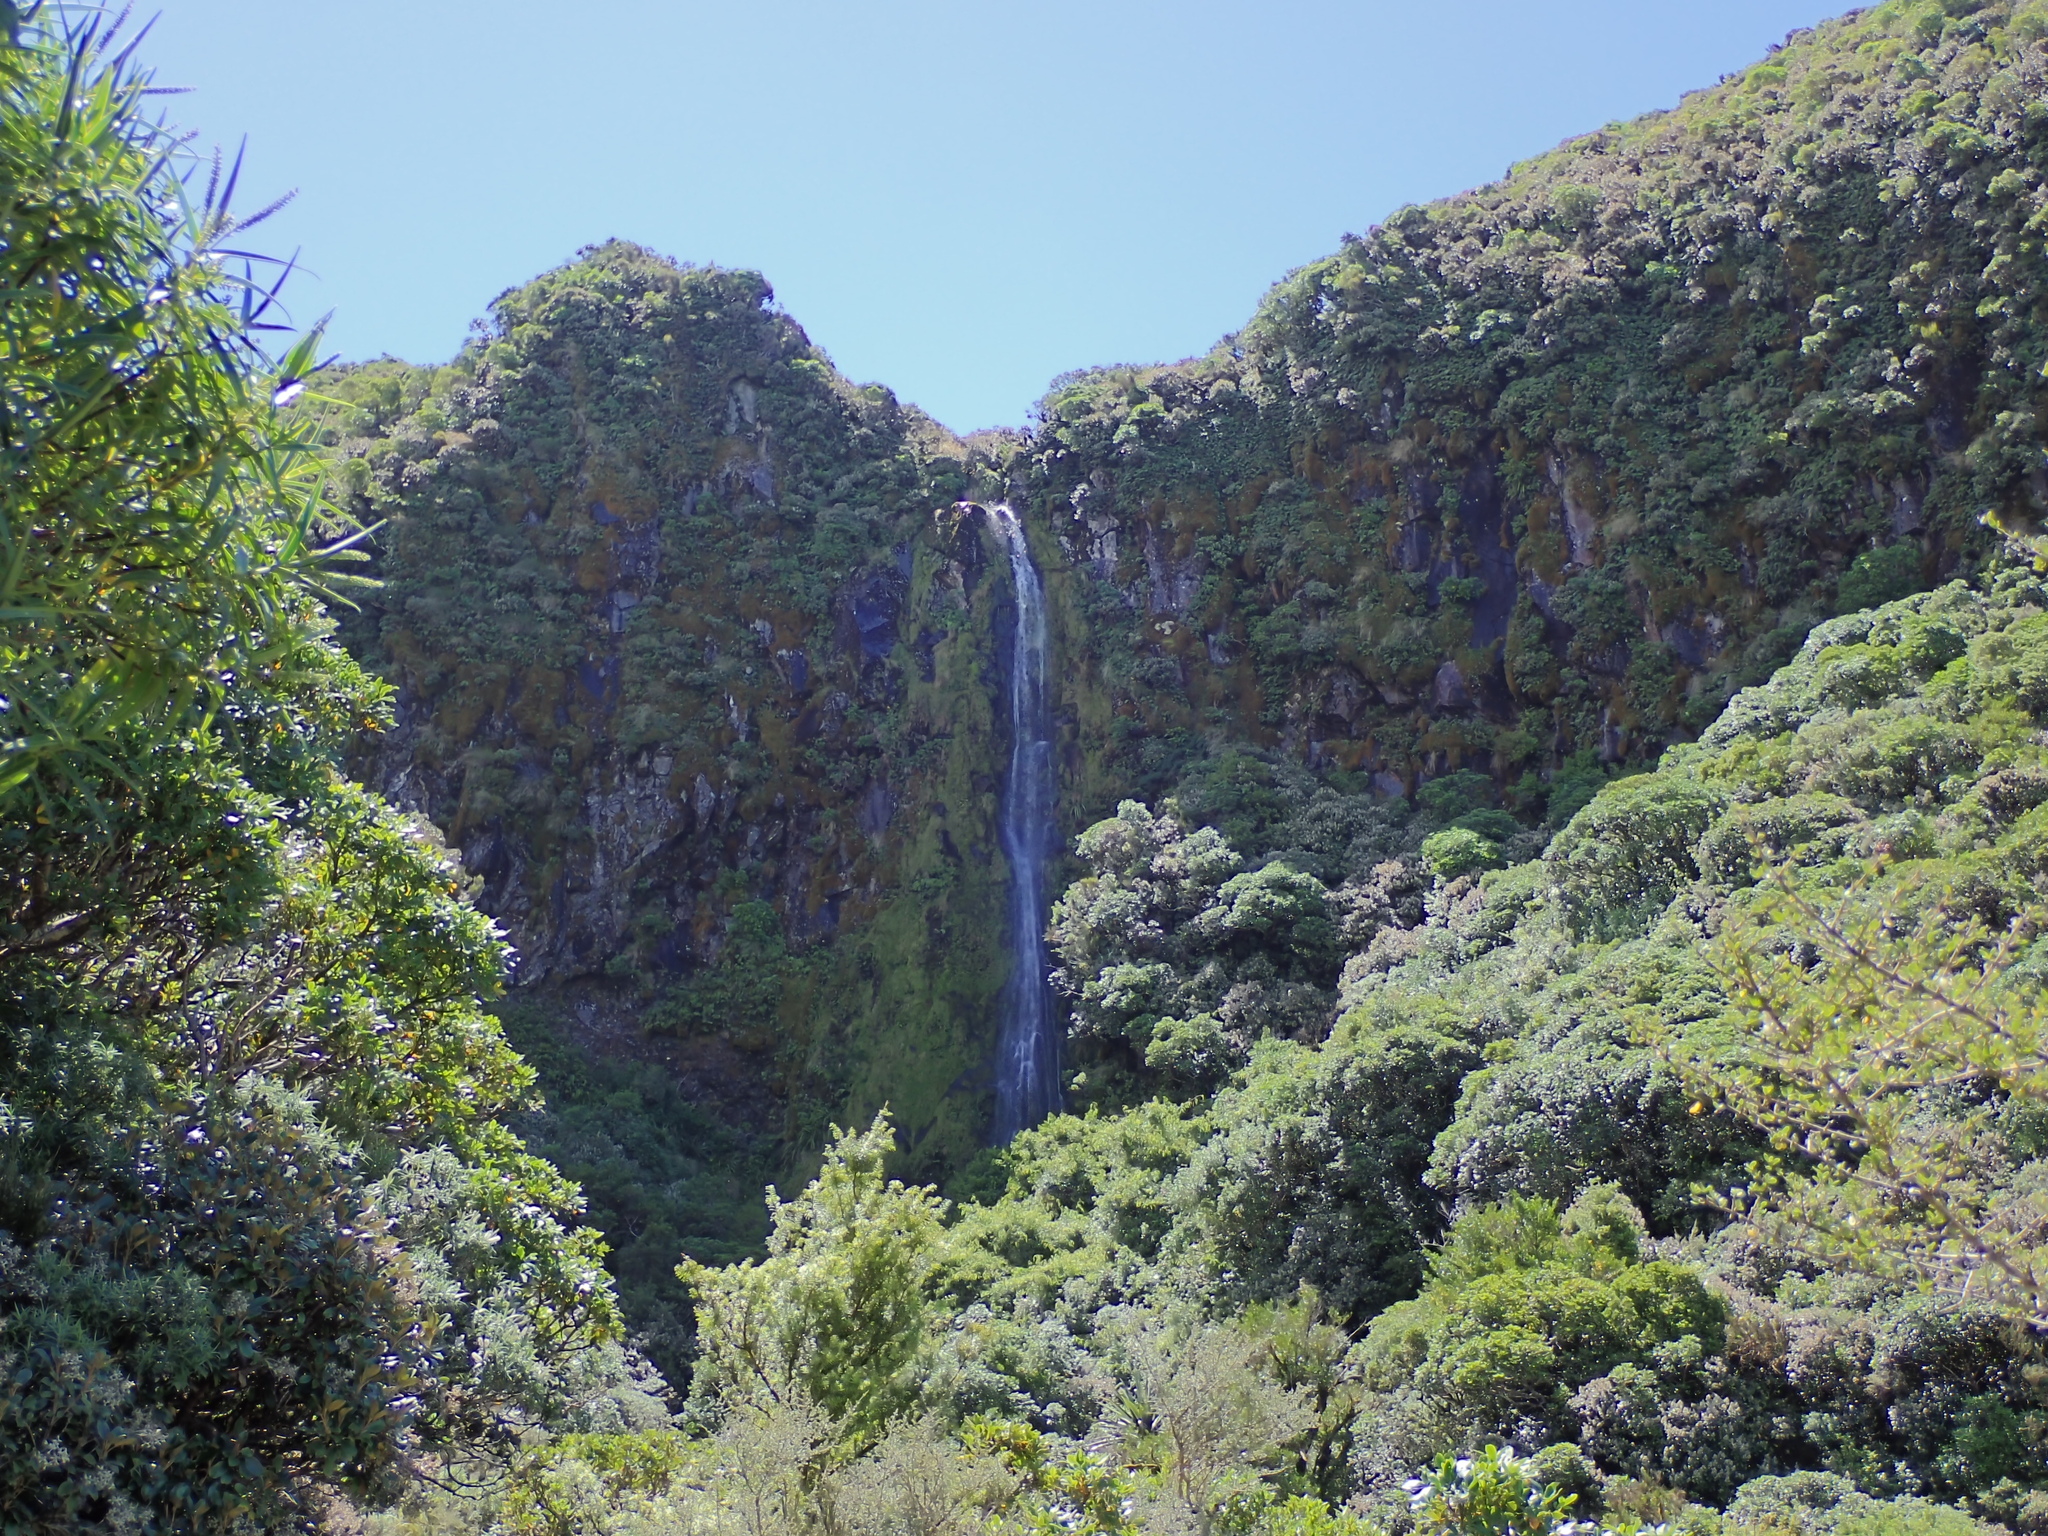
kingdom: Animalia
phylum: Arthropoda
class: Insecta
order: Ephemeroptera
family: Leptophlebiidae
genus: Deleatidium
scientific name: Deleatidium magnum
